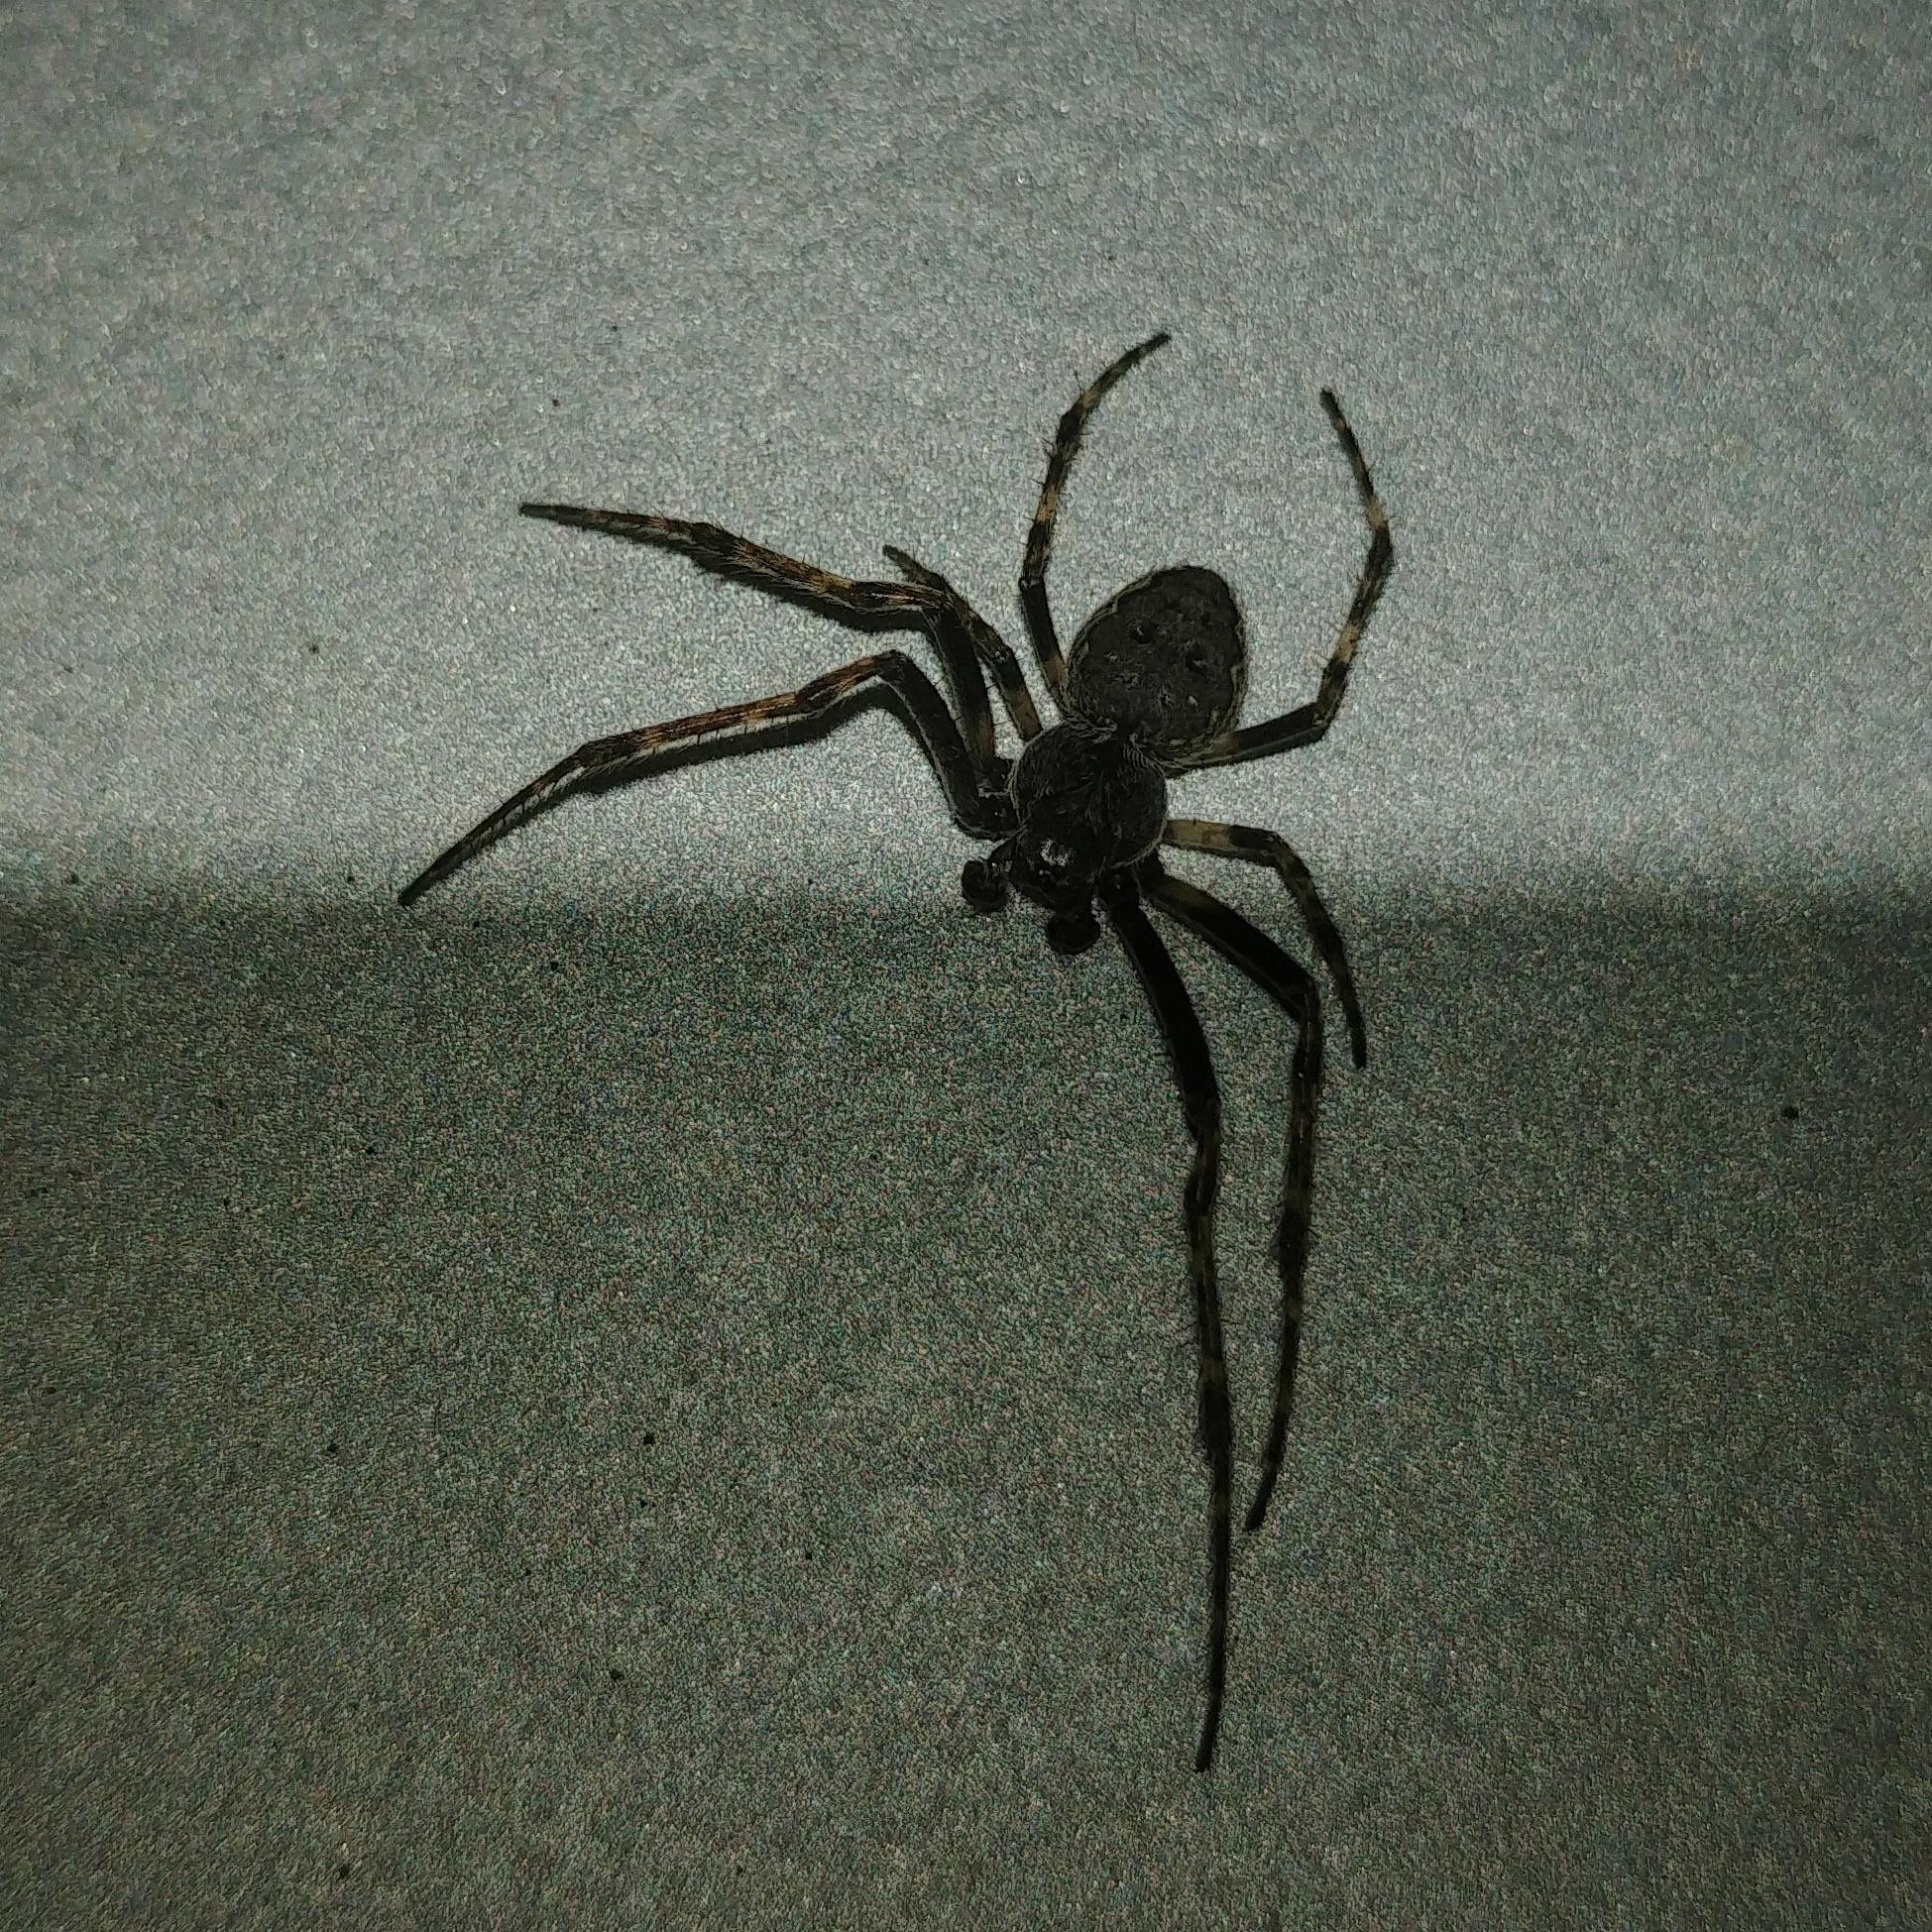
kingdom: Animalia
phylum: Arthropoda
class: Arachnida
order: Araneae
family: Araneidae
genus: Nuctenea
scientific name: Nuctenea umbratica
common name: Toad spider
